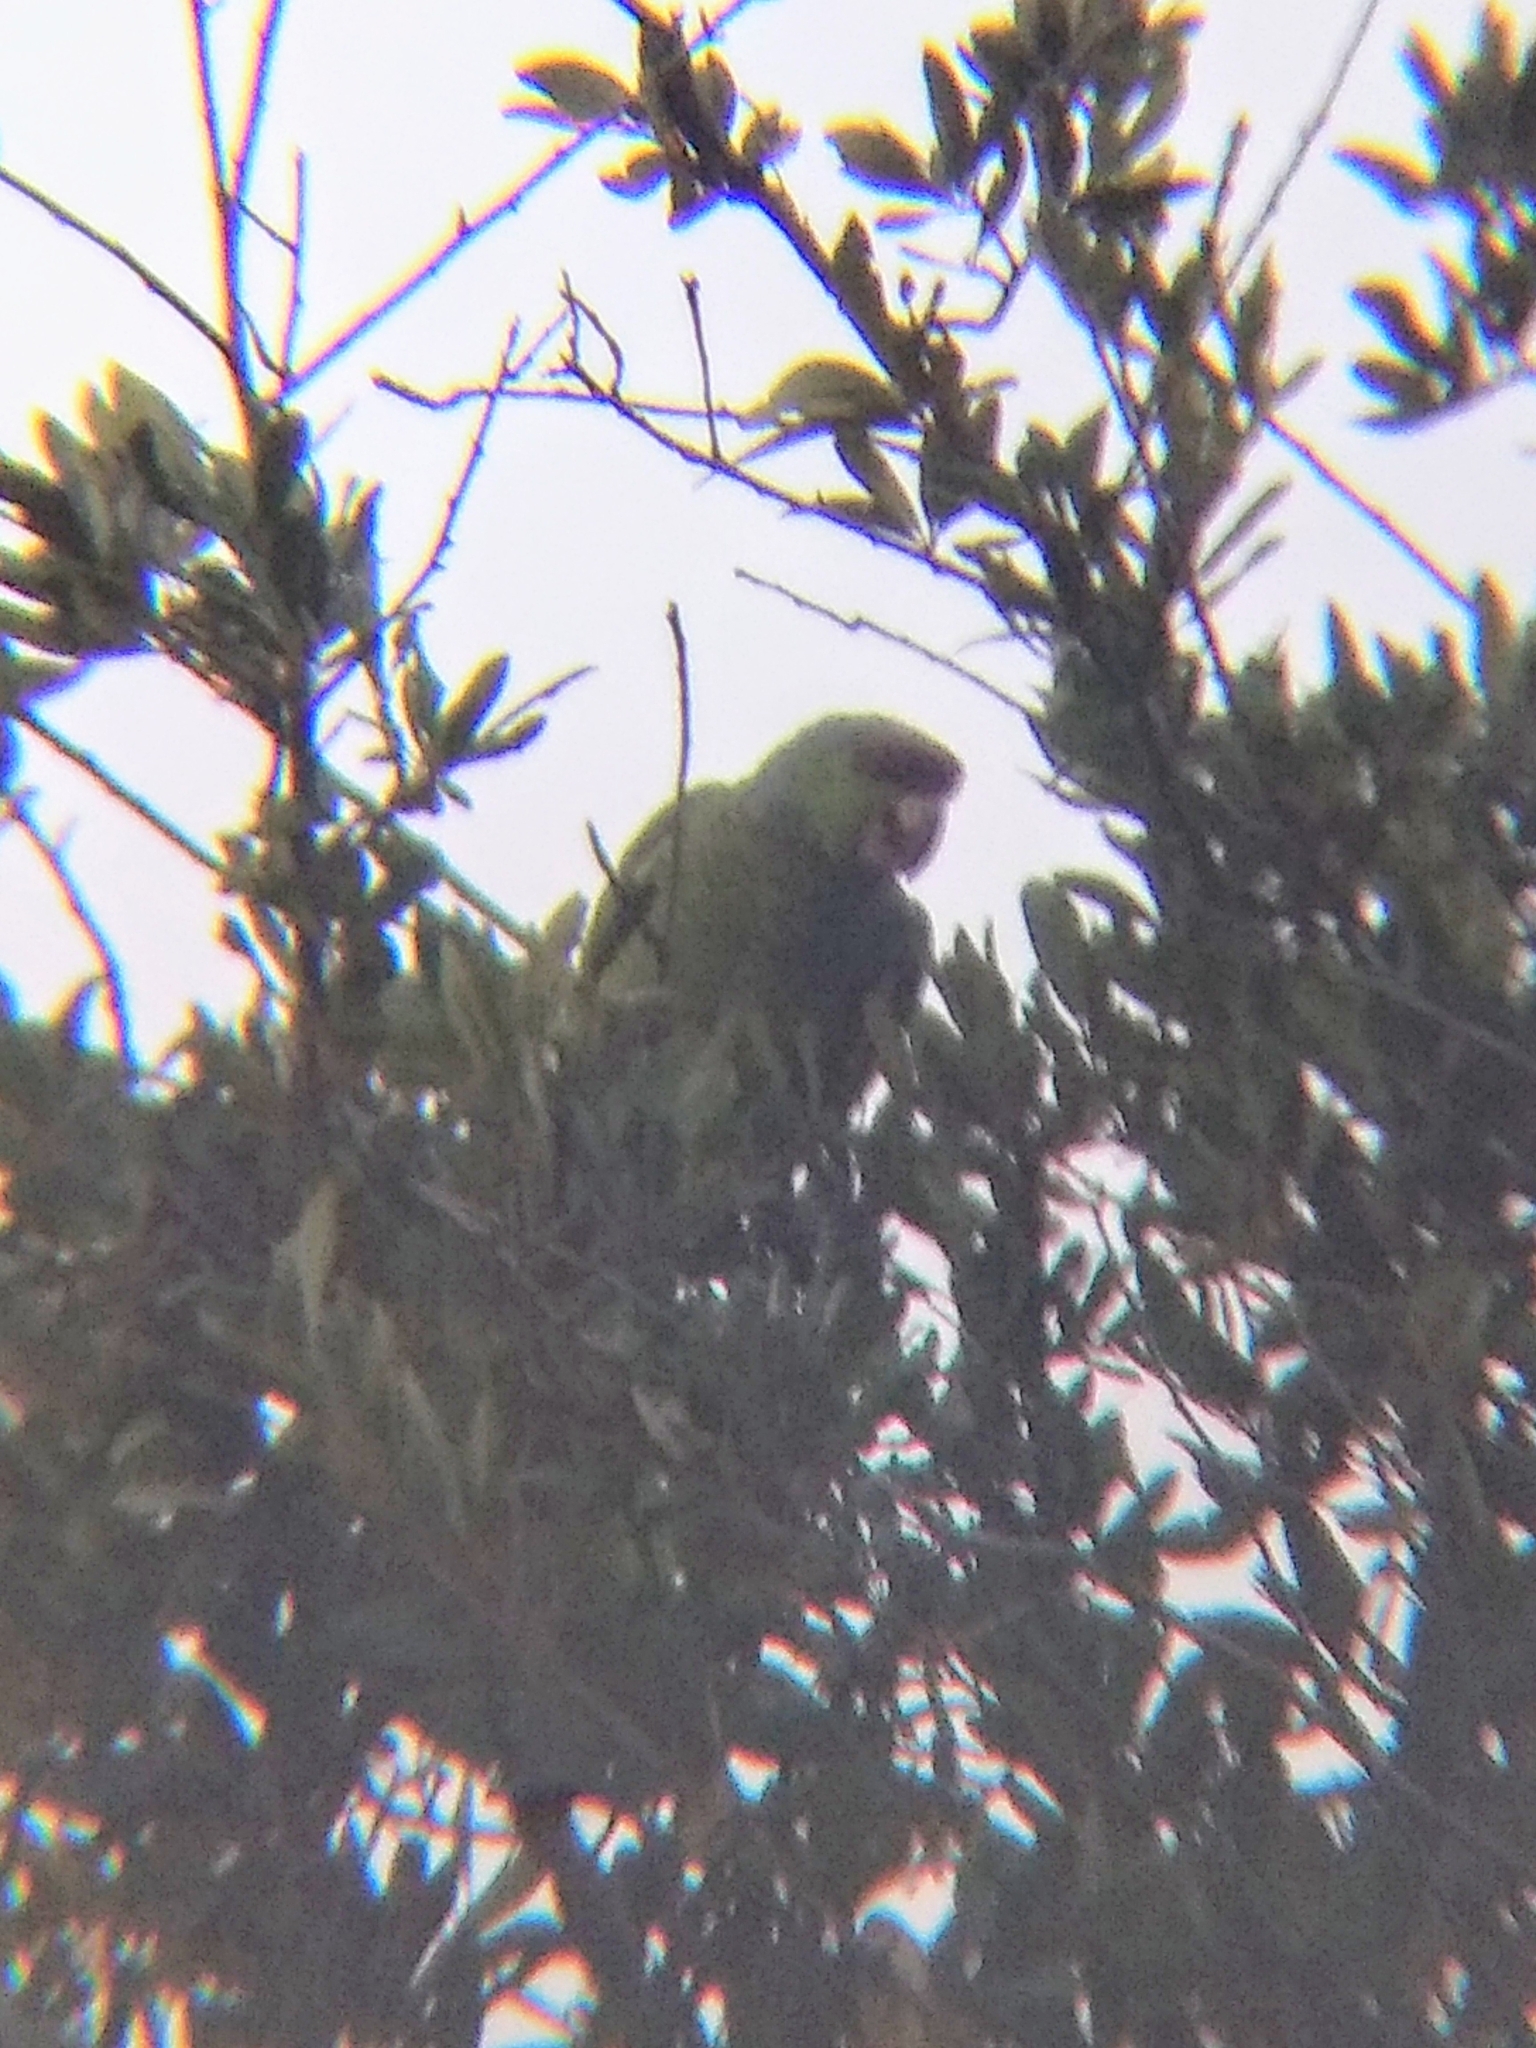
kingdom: Animalia
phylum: Chordata
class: Aves
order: Psittaciformes
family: Psittacidae
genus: Amazona
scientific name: Amazona finschi
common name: Lilac-crowned amazon
